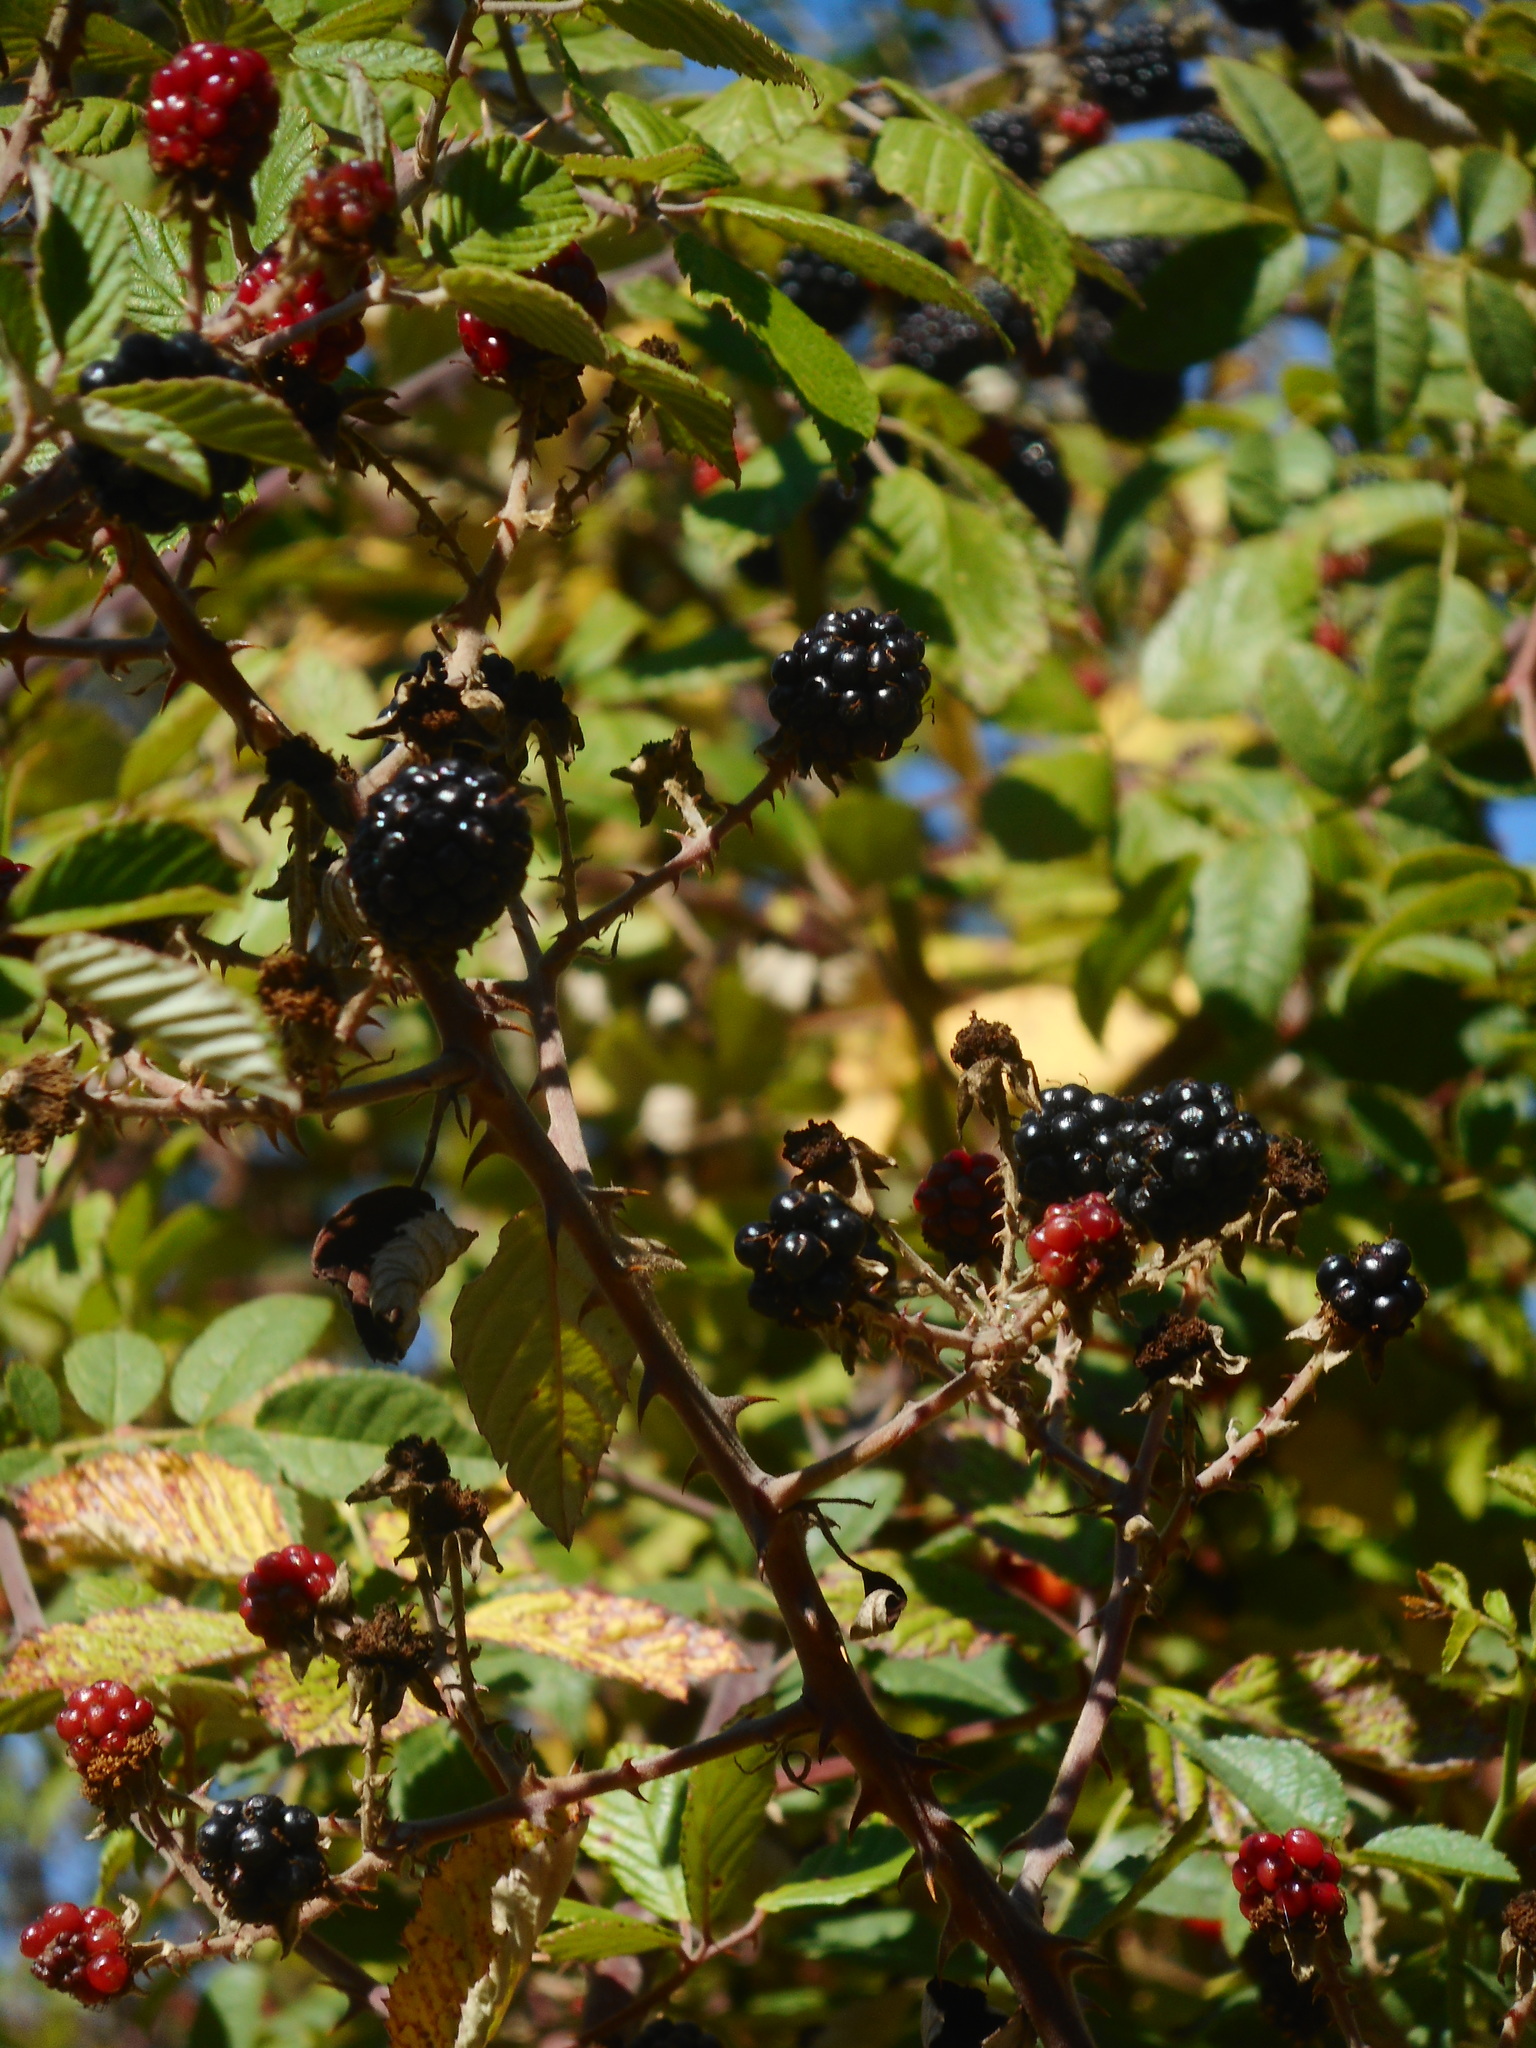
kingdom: Plantae
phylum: Tracheophyta
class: Magnoliopsida
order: Rosales
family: Rosaceae
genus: Rubus
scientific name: Rubus ulmifolius
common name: Elmleaf blackberry
